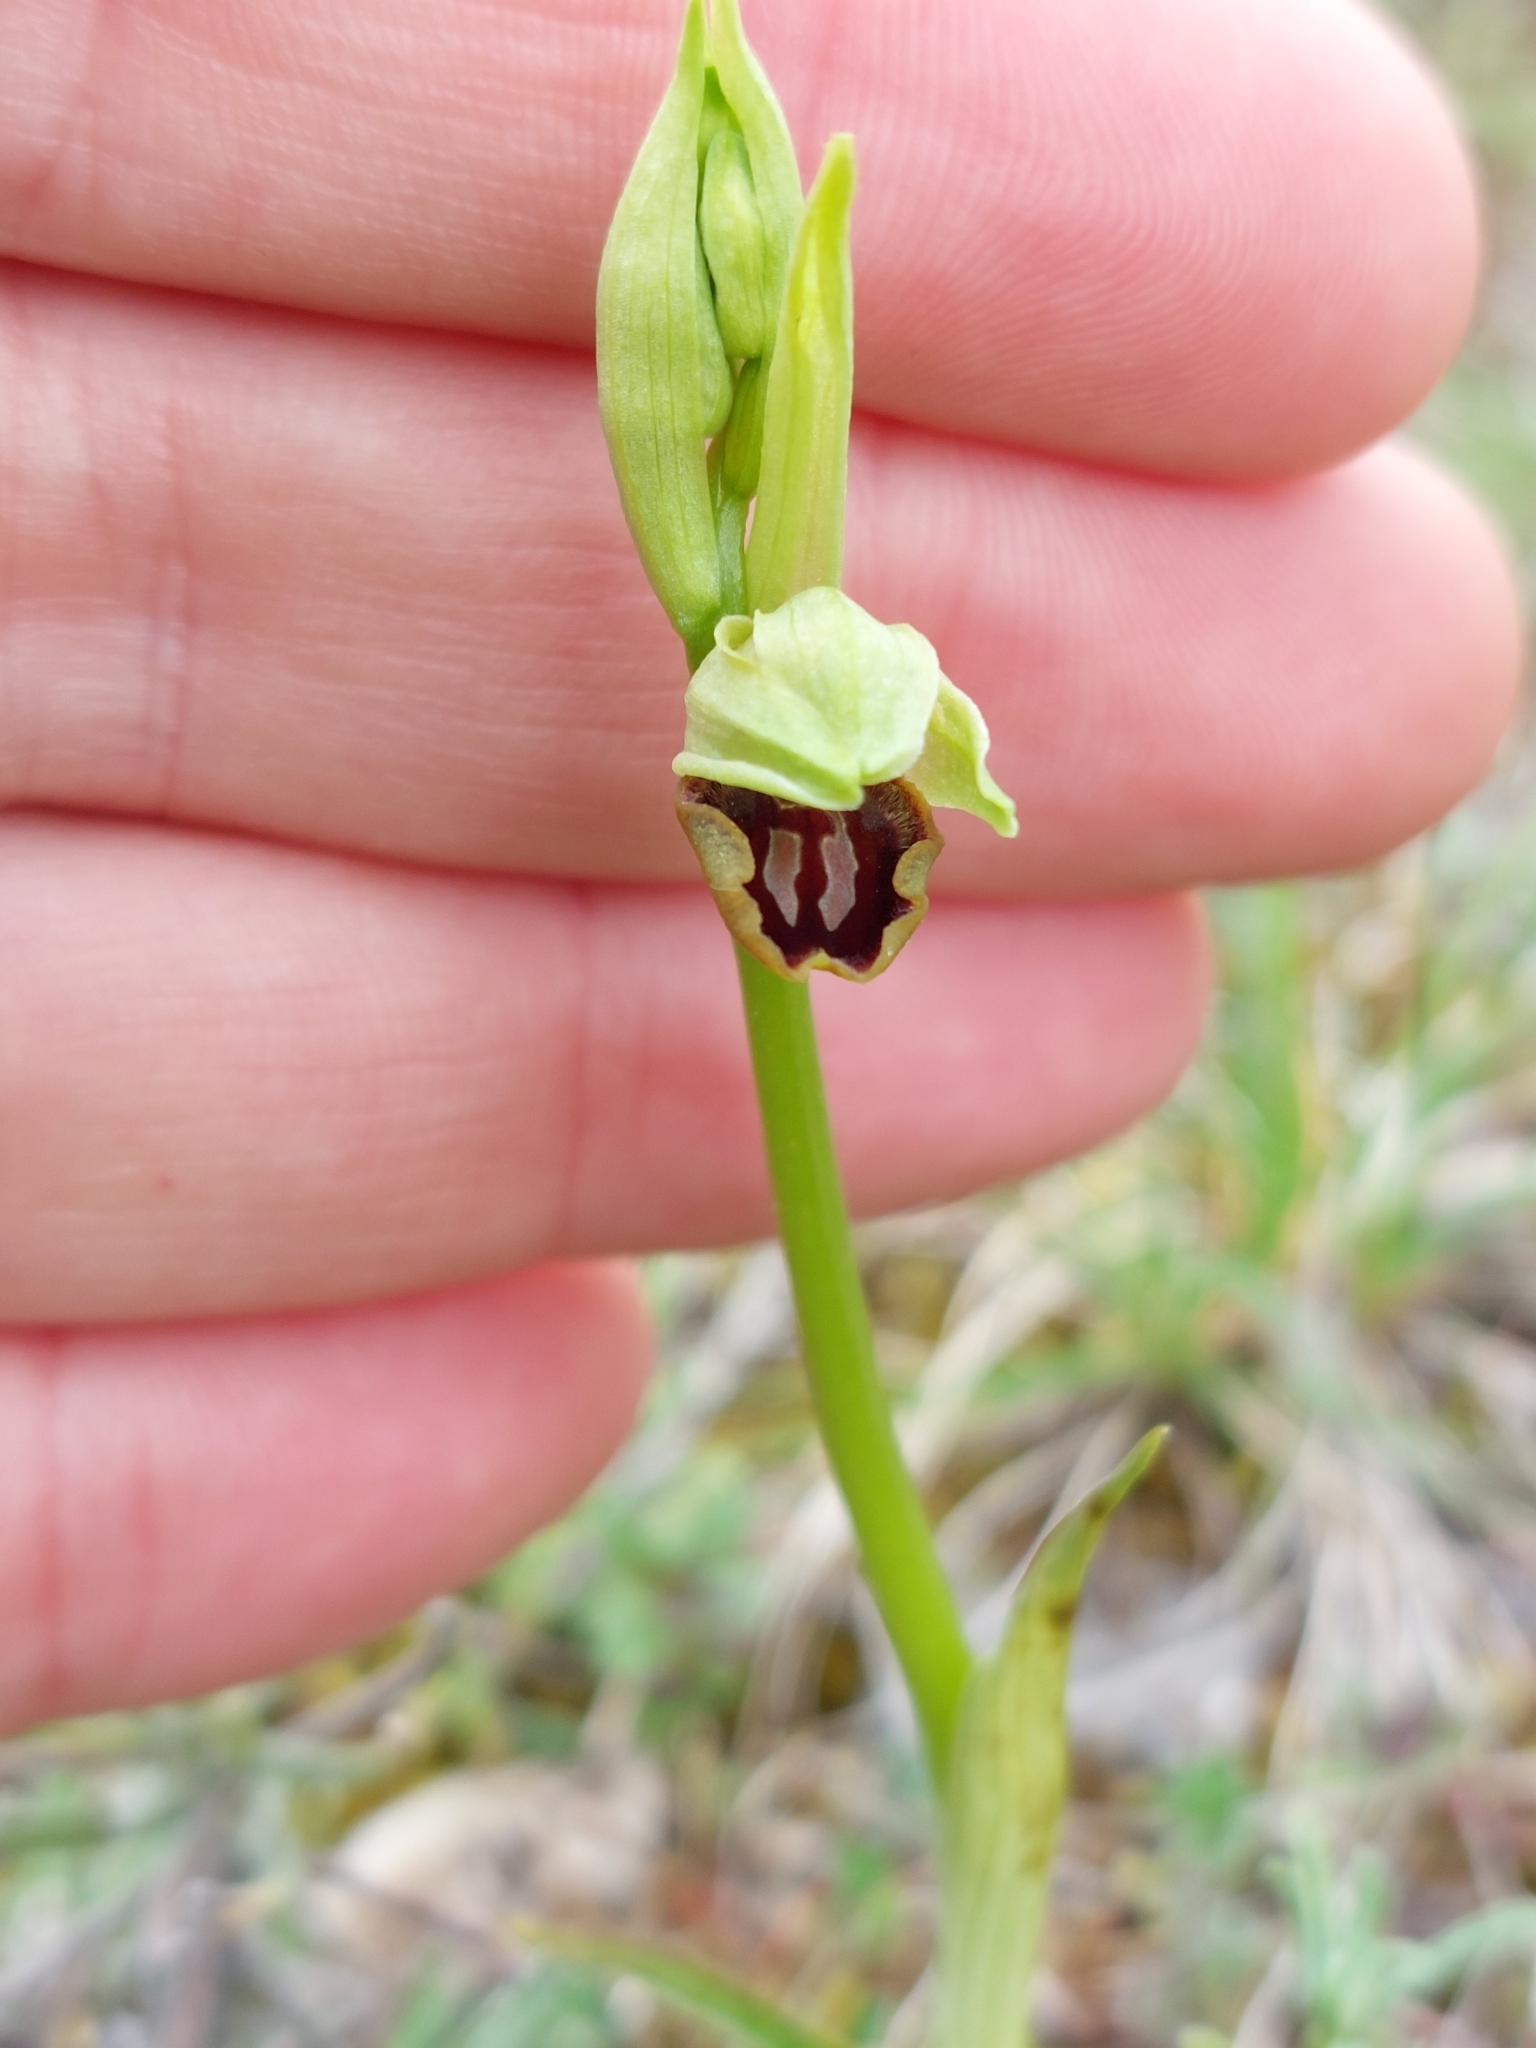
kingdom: Plantae
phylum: Tracheophyta
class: Liliopsida
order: Asparagales
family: Orchidaceae
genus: Ophrys
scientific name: Ophrys sphegodes
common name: Early spider-orchid
